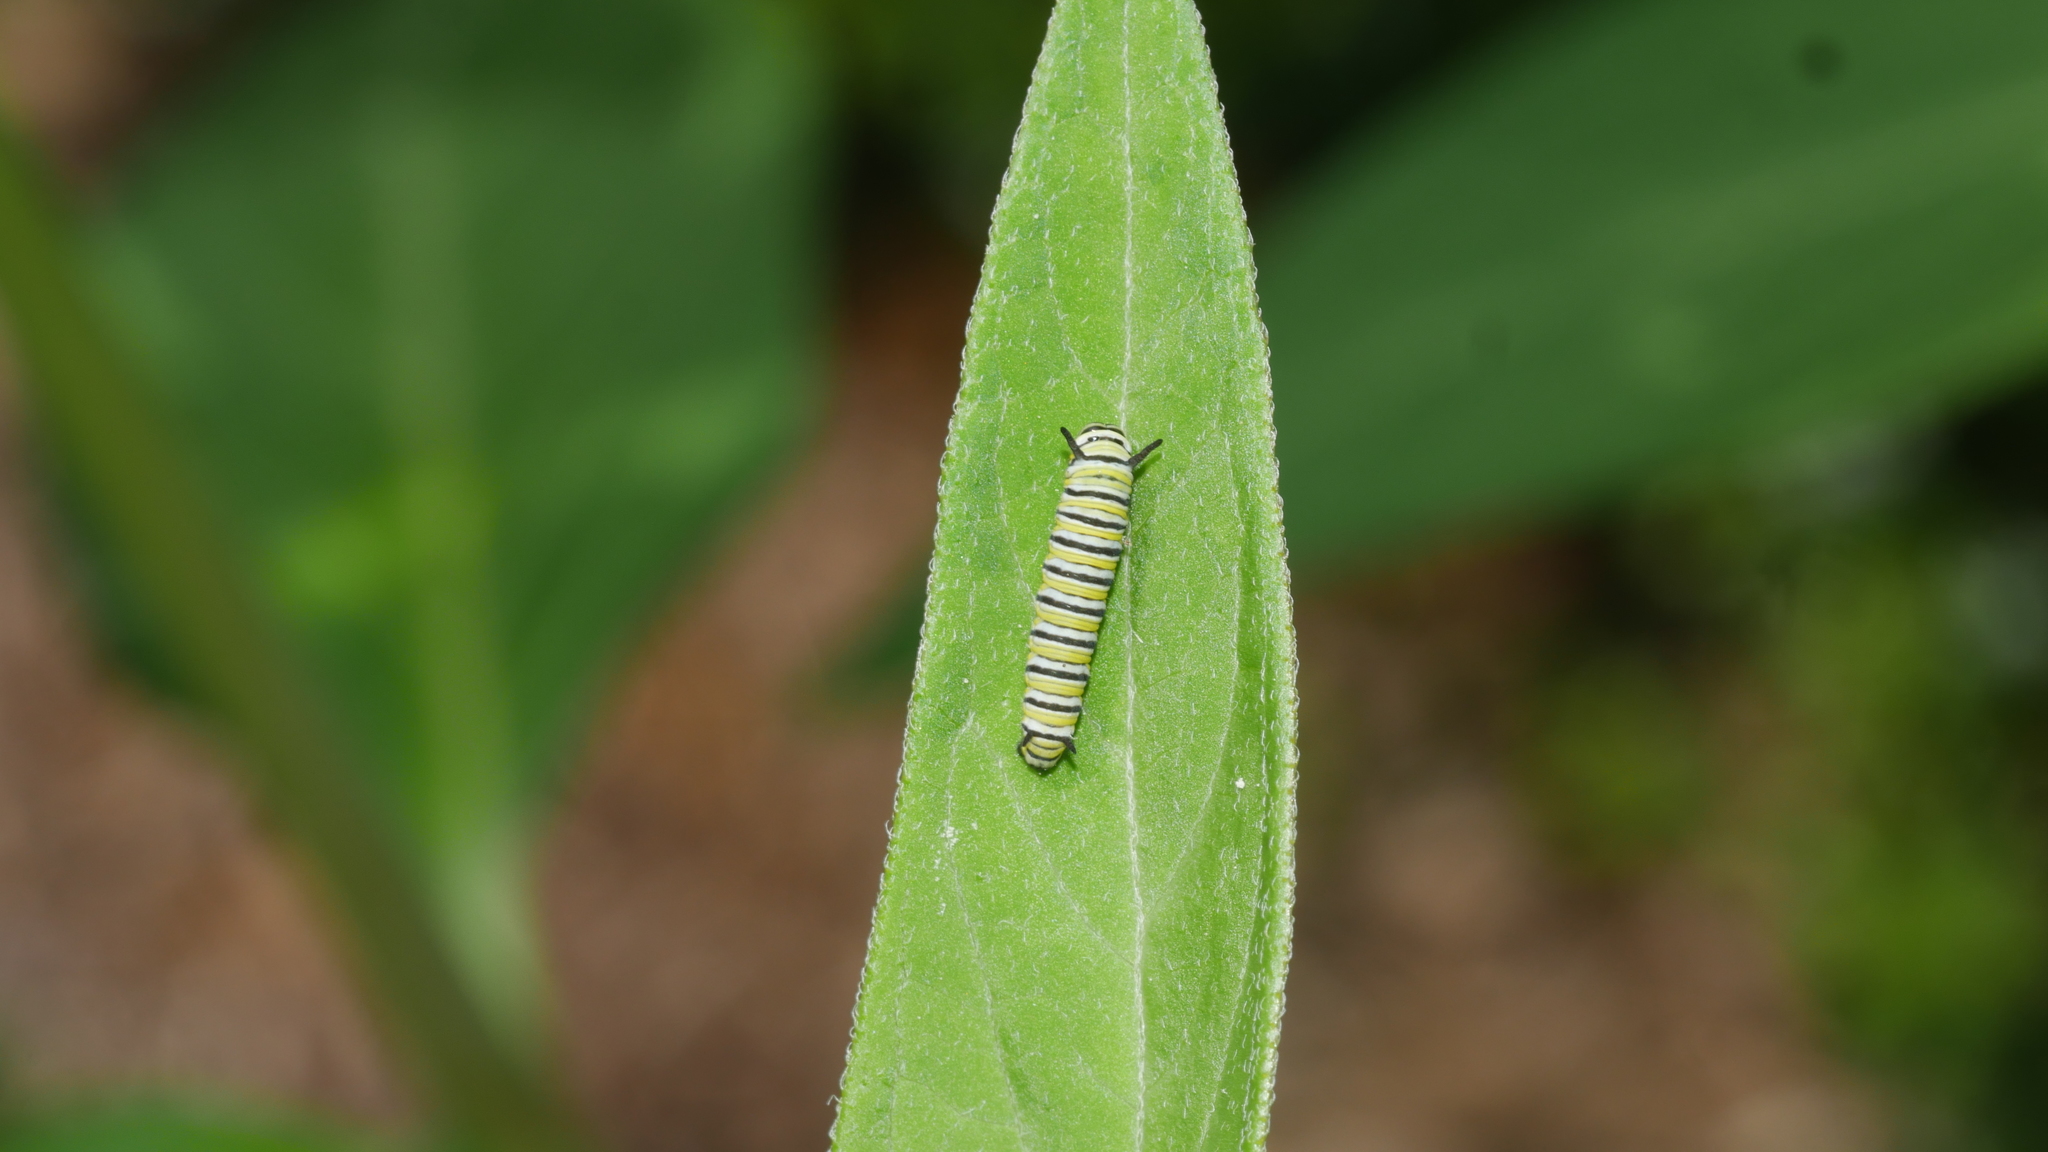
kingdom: Animalia
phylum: Arthropoda
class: Insecta
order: Lepidoptera
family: Nymphalidae
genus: Danaus
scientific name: Danaus plexippus
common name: Monarch
